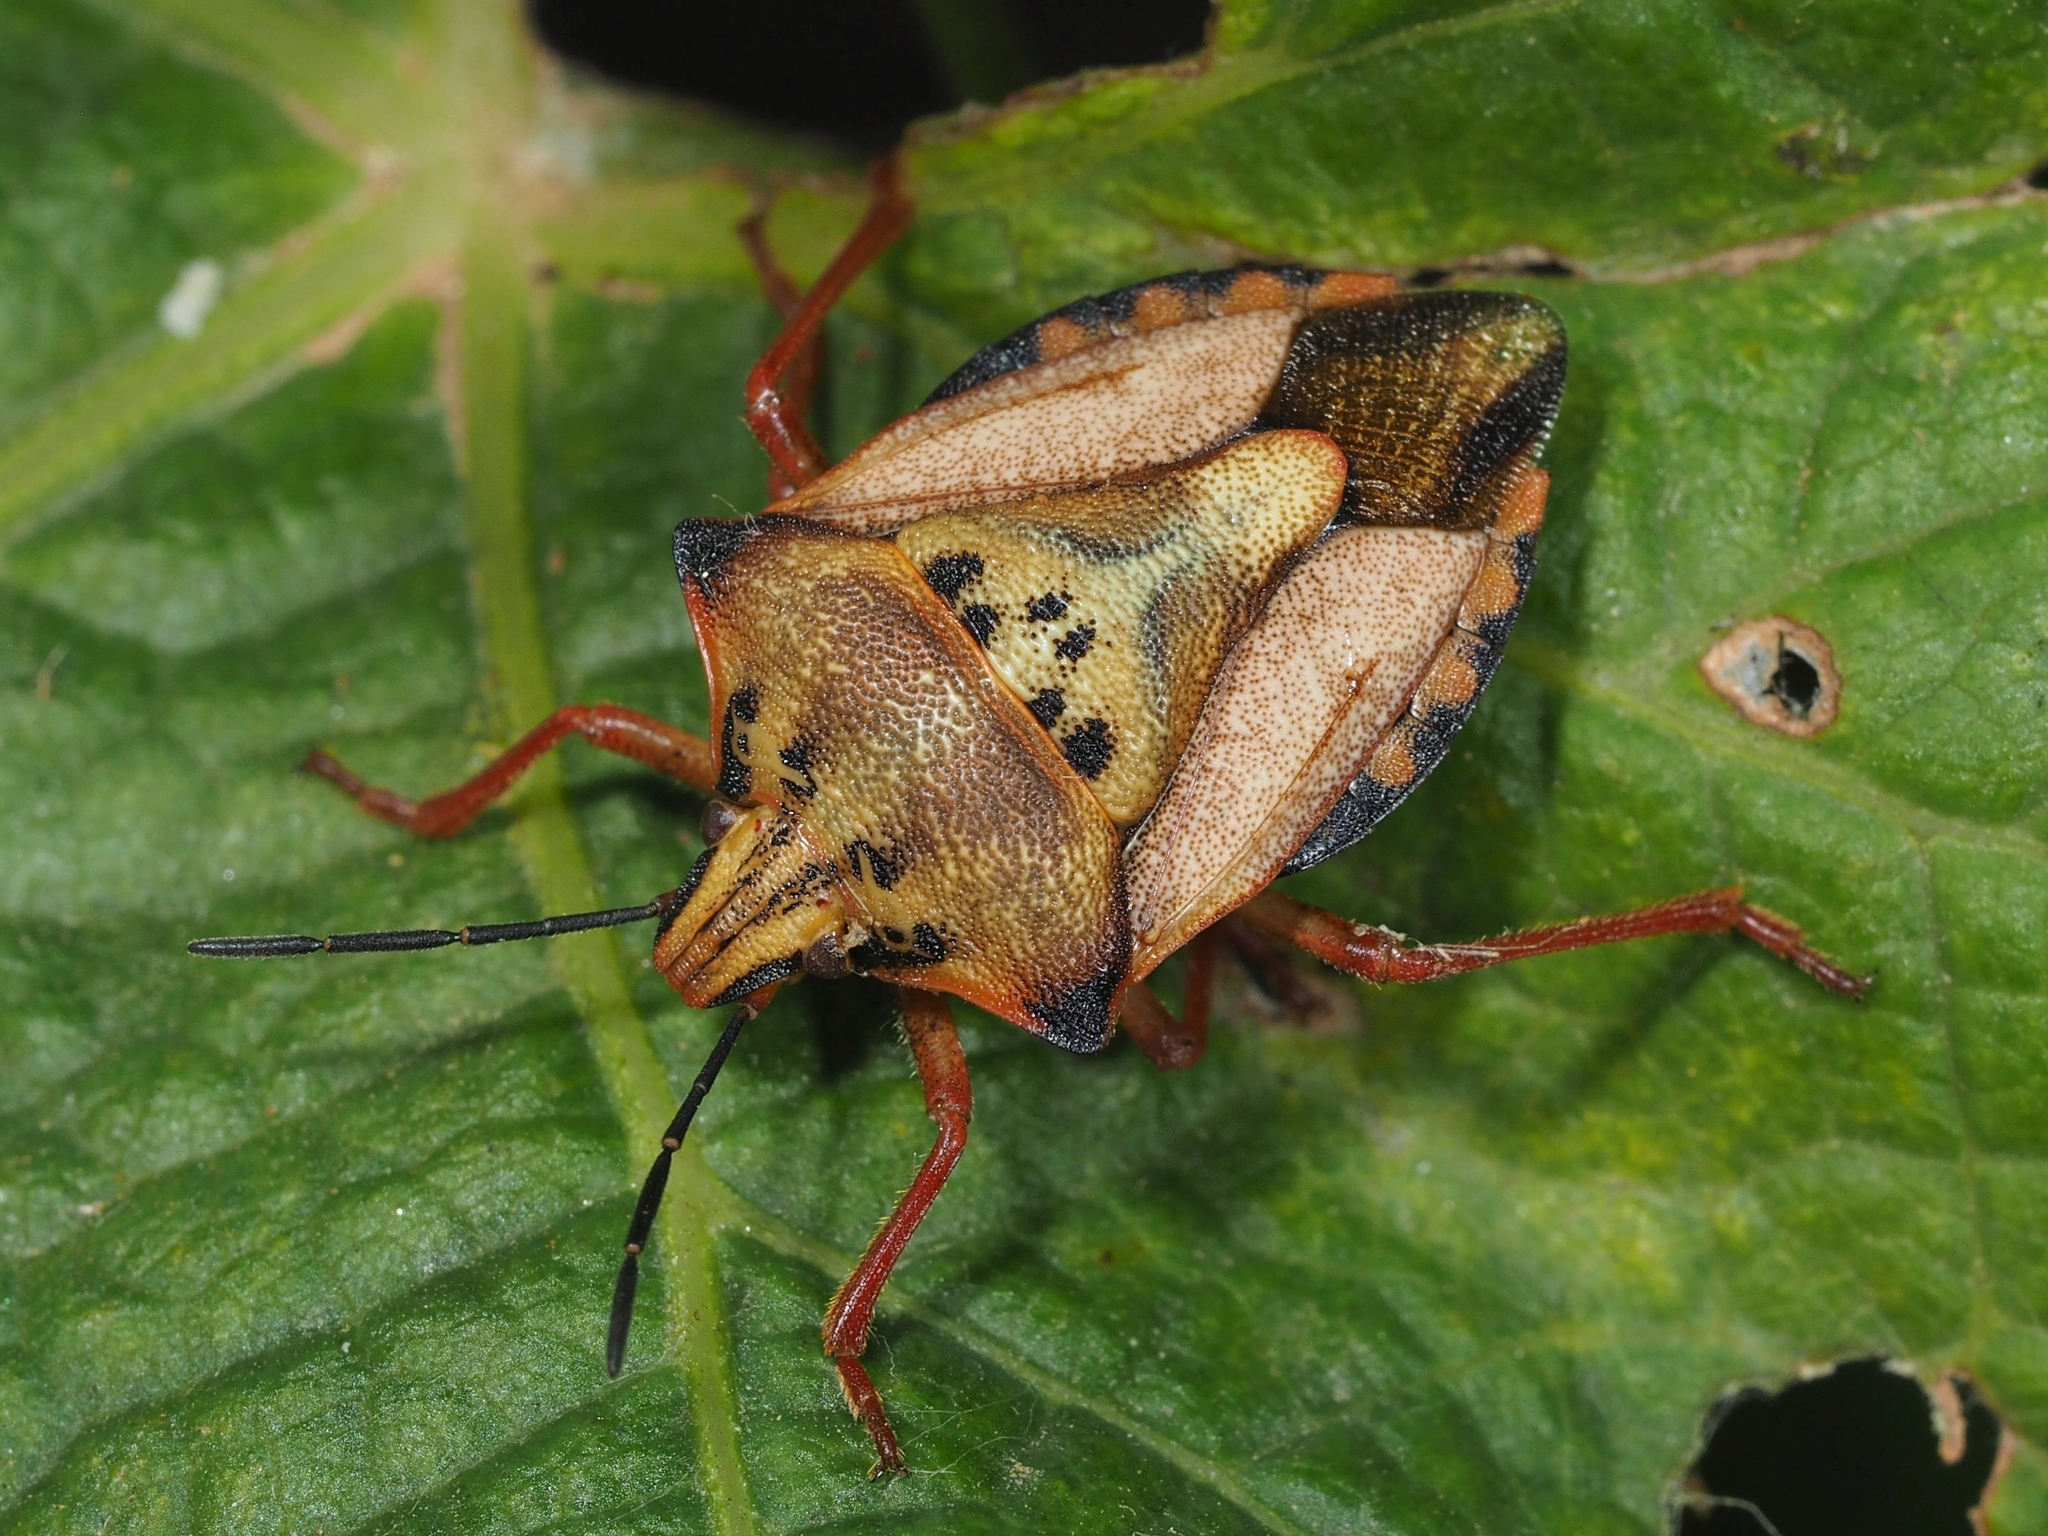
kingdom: Animalia
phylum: Arthropoda
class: Insecta
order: Hemiptera
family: Pentatomidae
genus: Carpocoris
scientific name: Carpocoris mediterraneus
